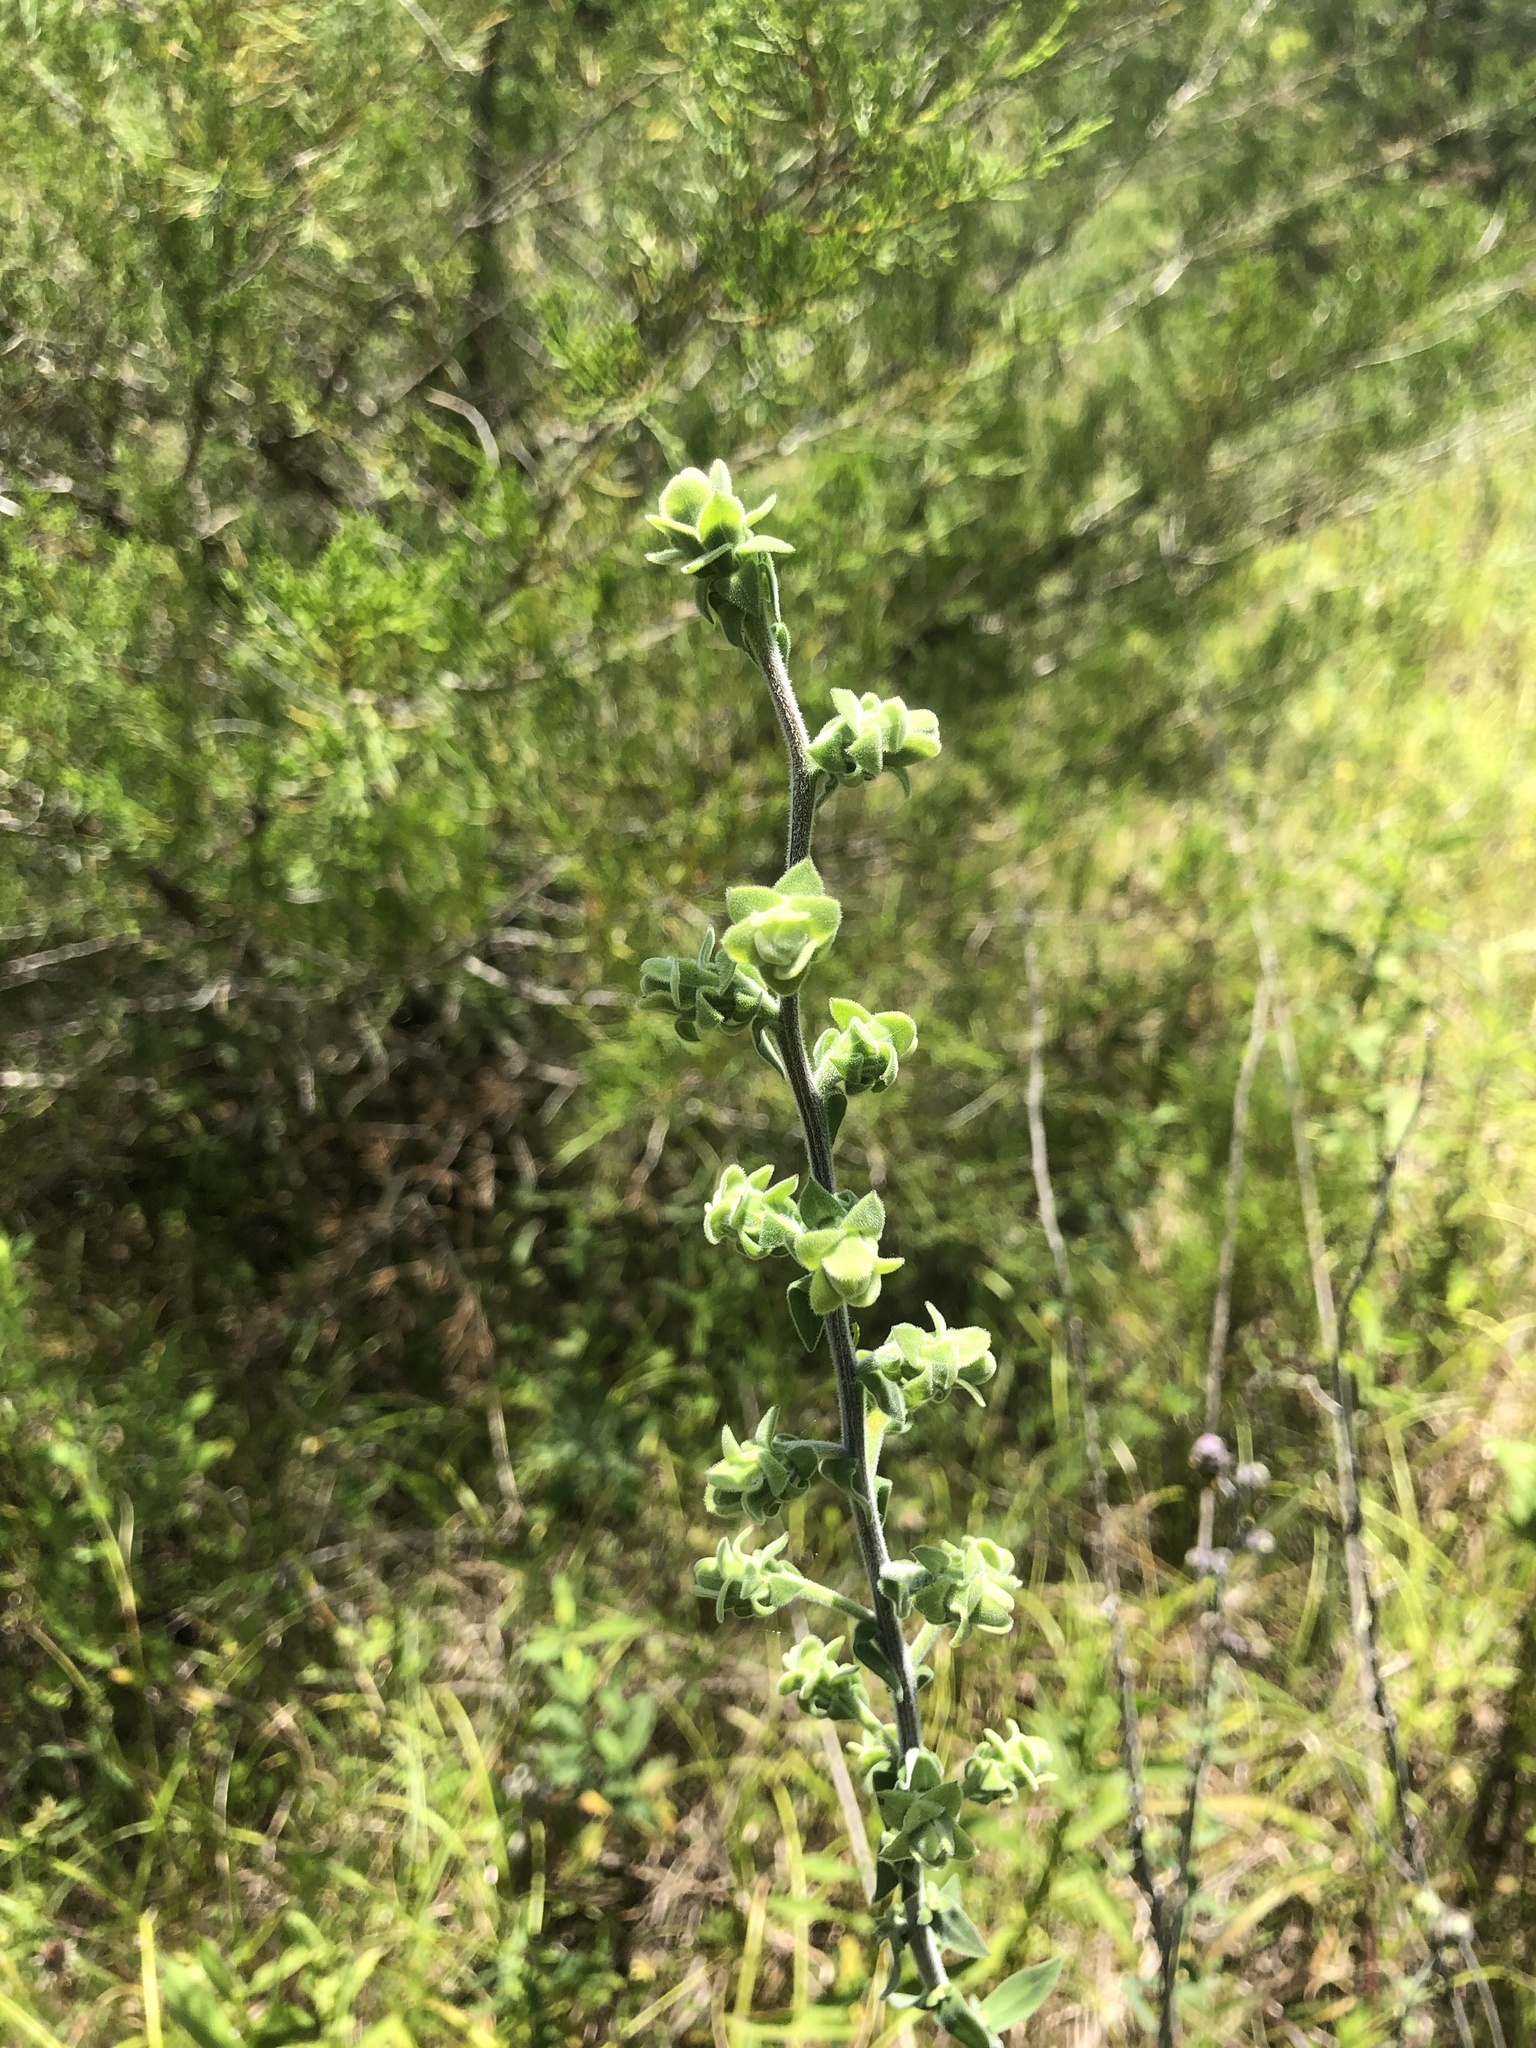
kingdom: Plantae
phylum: Tracheophyta
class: Magnoliopsida
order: Asterales
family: Asteraceae
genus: Liatris
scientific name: Liatris squarrulosa
